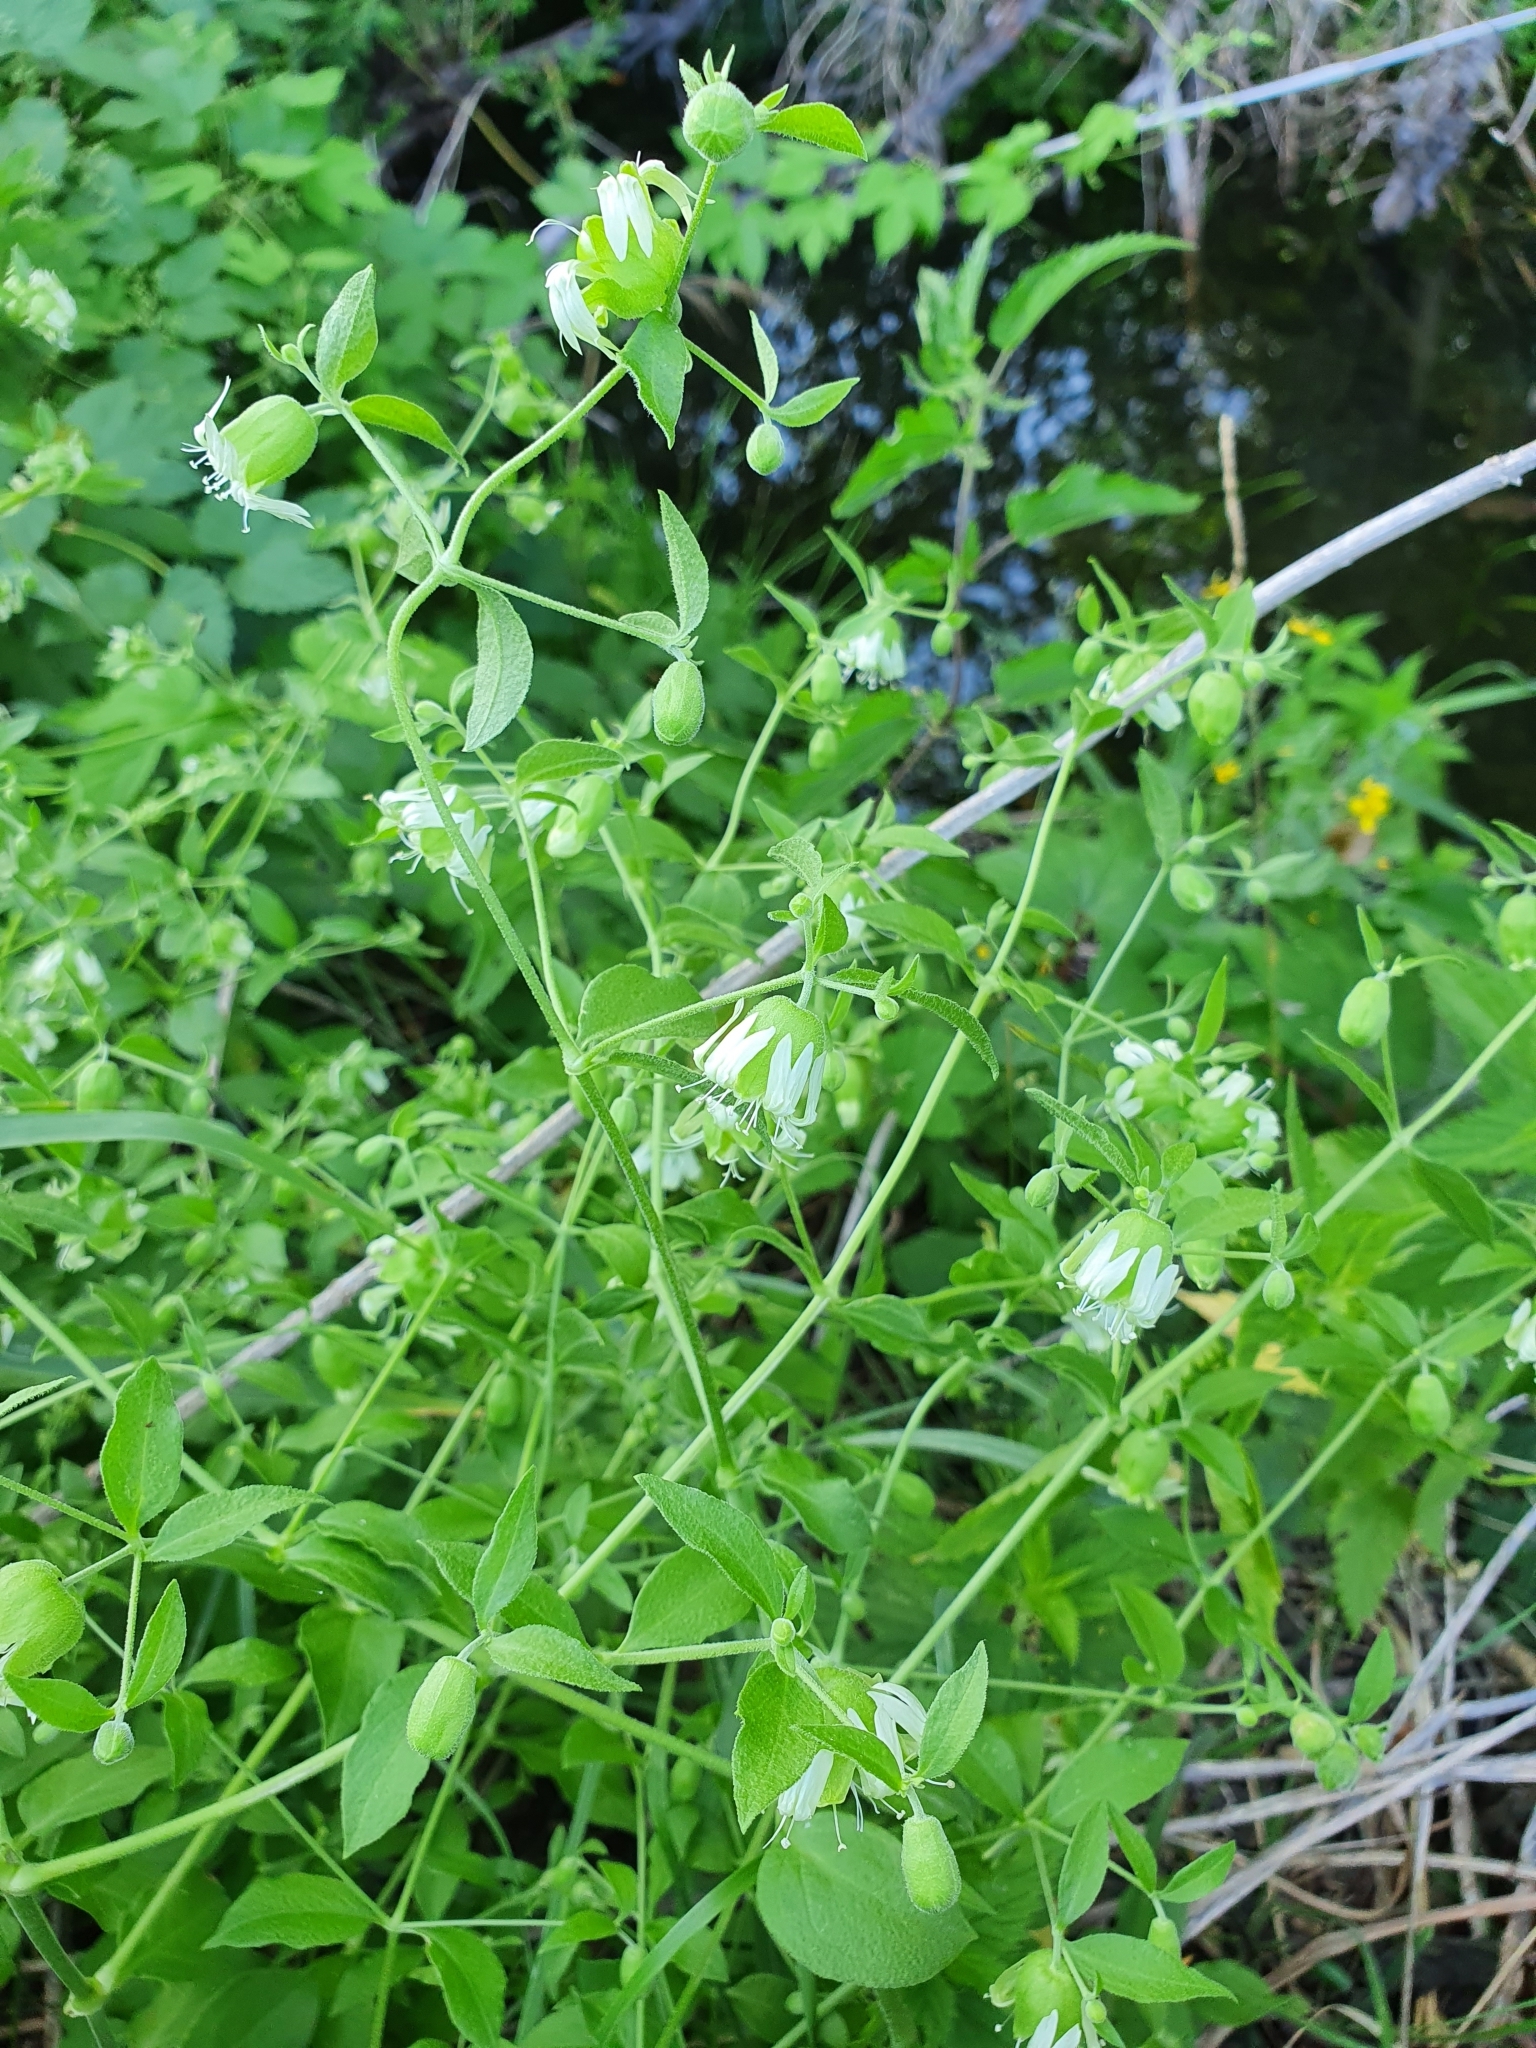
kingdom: Plantae
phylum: Tracheophyta
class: Magnoliopsida
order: Caryophyllales
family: Caryophyllaceae
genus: Silene
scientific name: Silene baccifera
